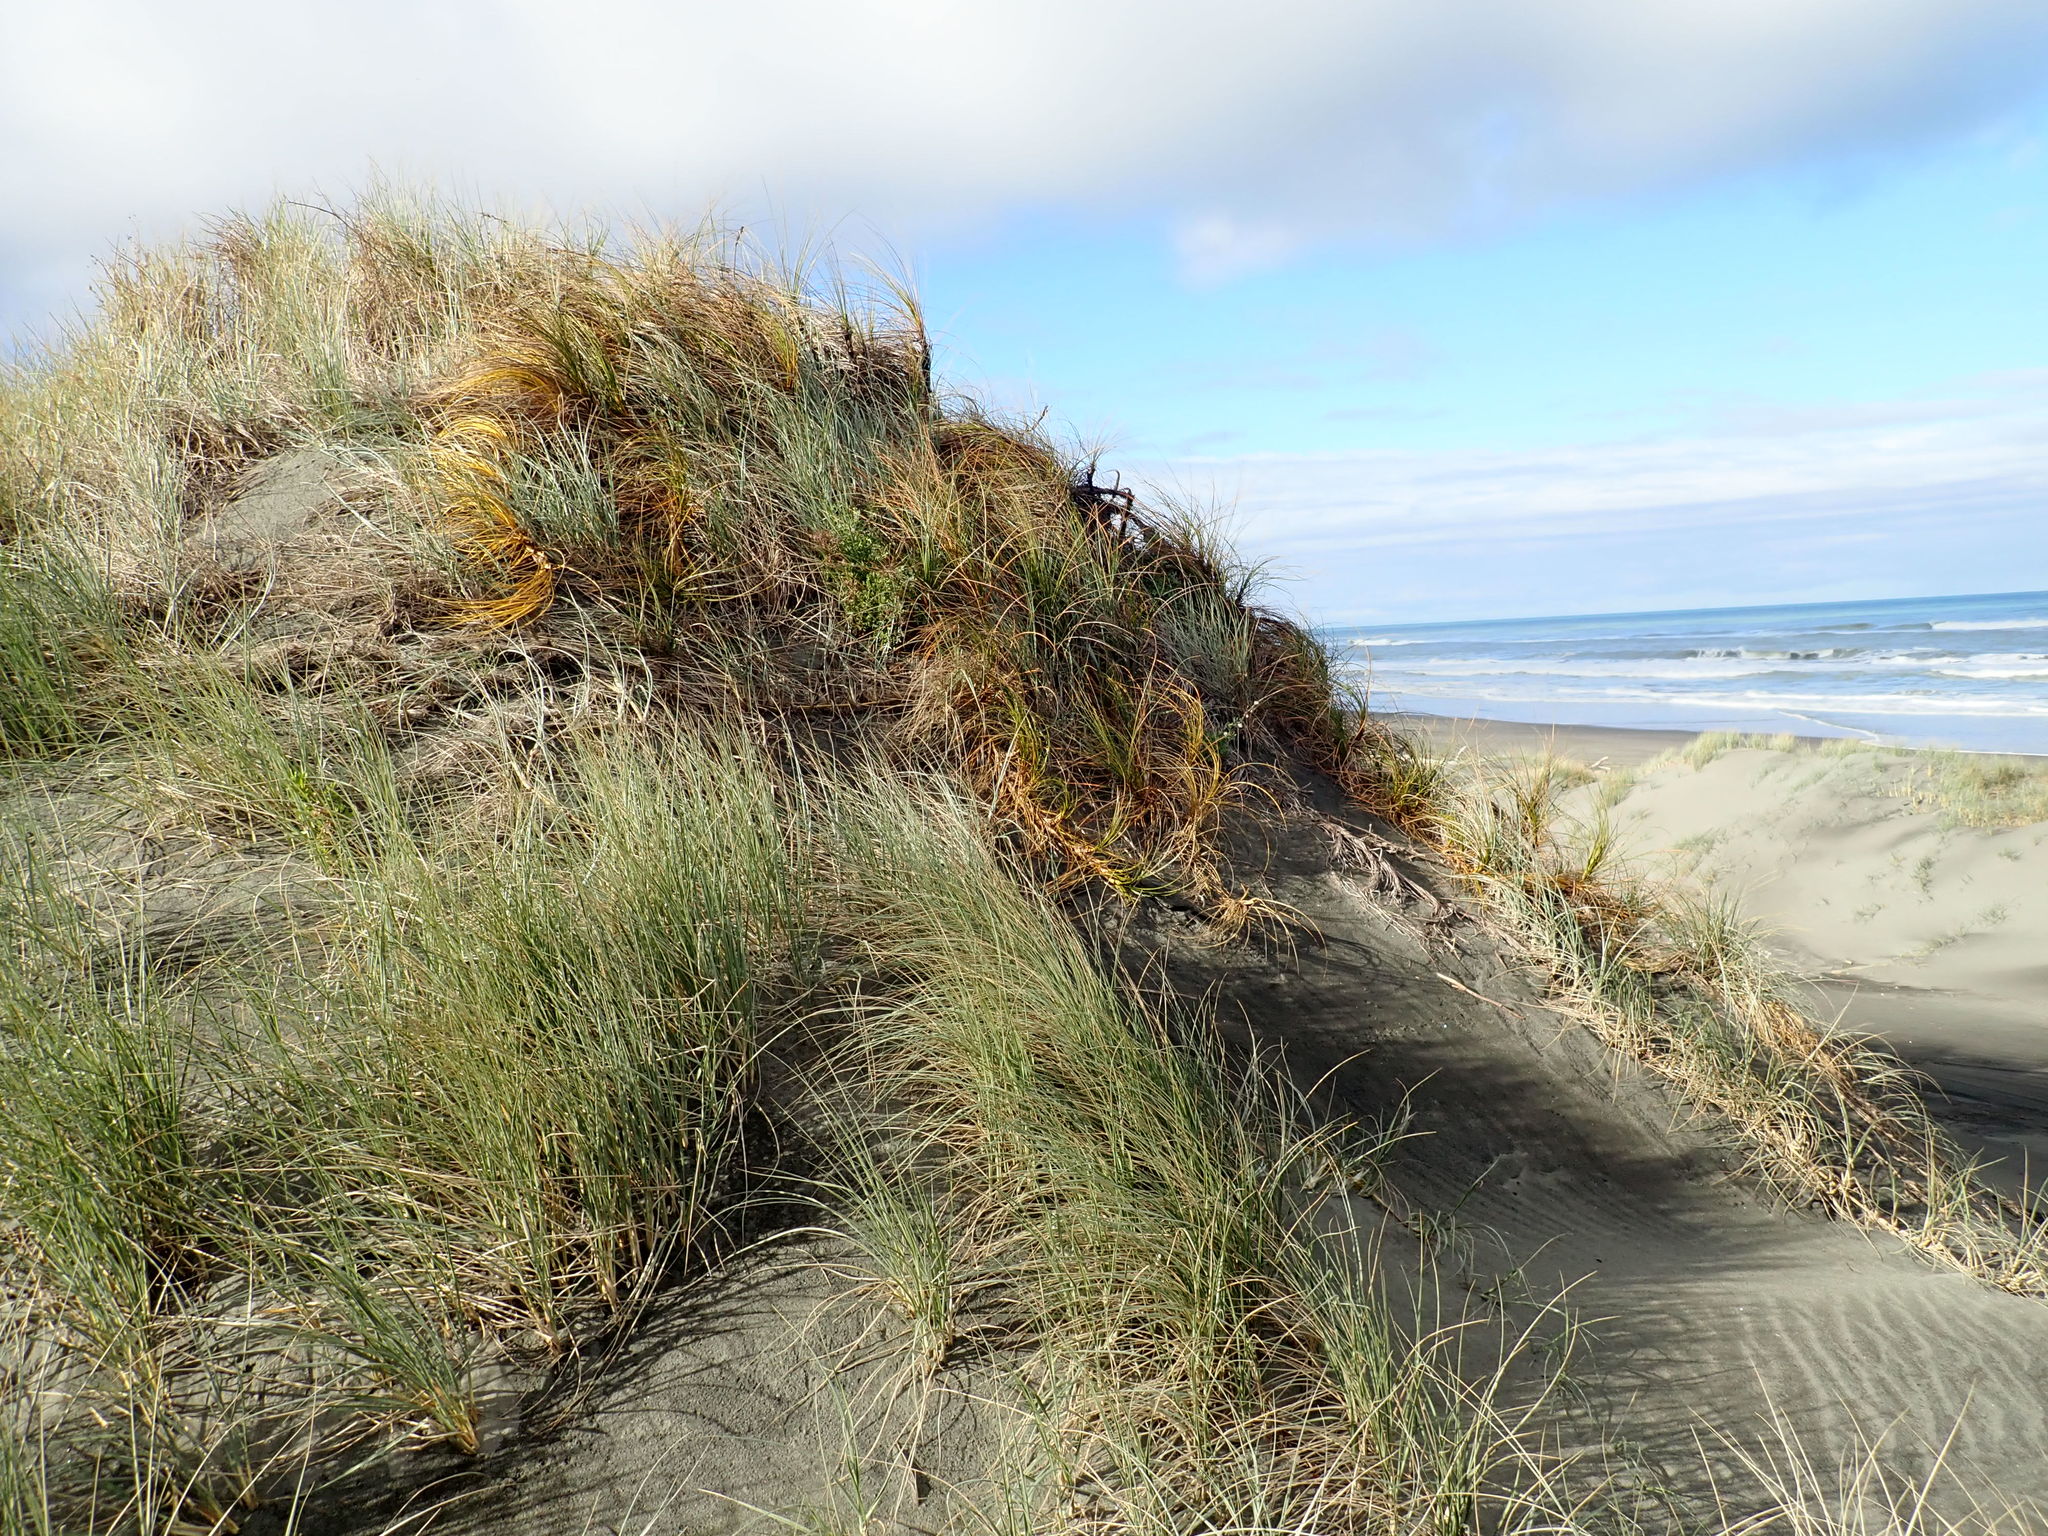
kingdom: Plantae
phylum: Tracheophyta
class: Liliopsida
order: Poales
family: Cyperaceae
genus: Ficinia
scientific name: Ficinia spiralis
